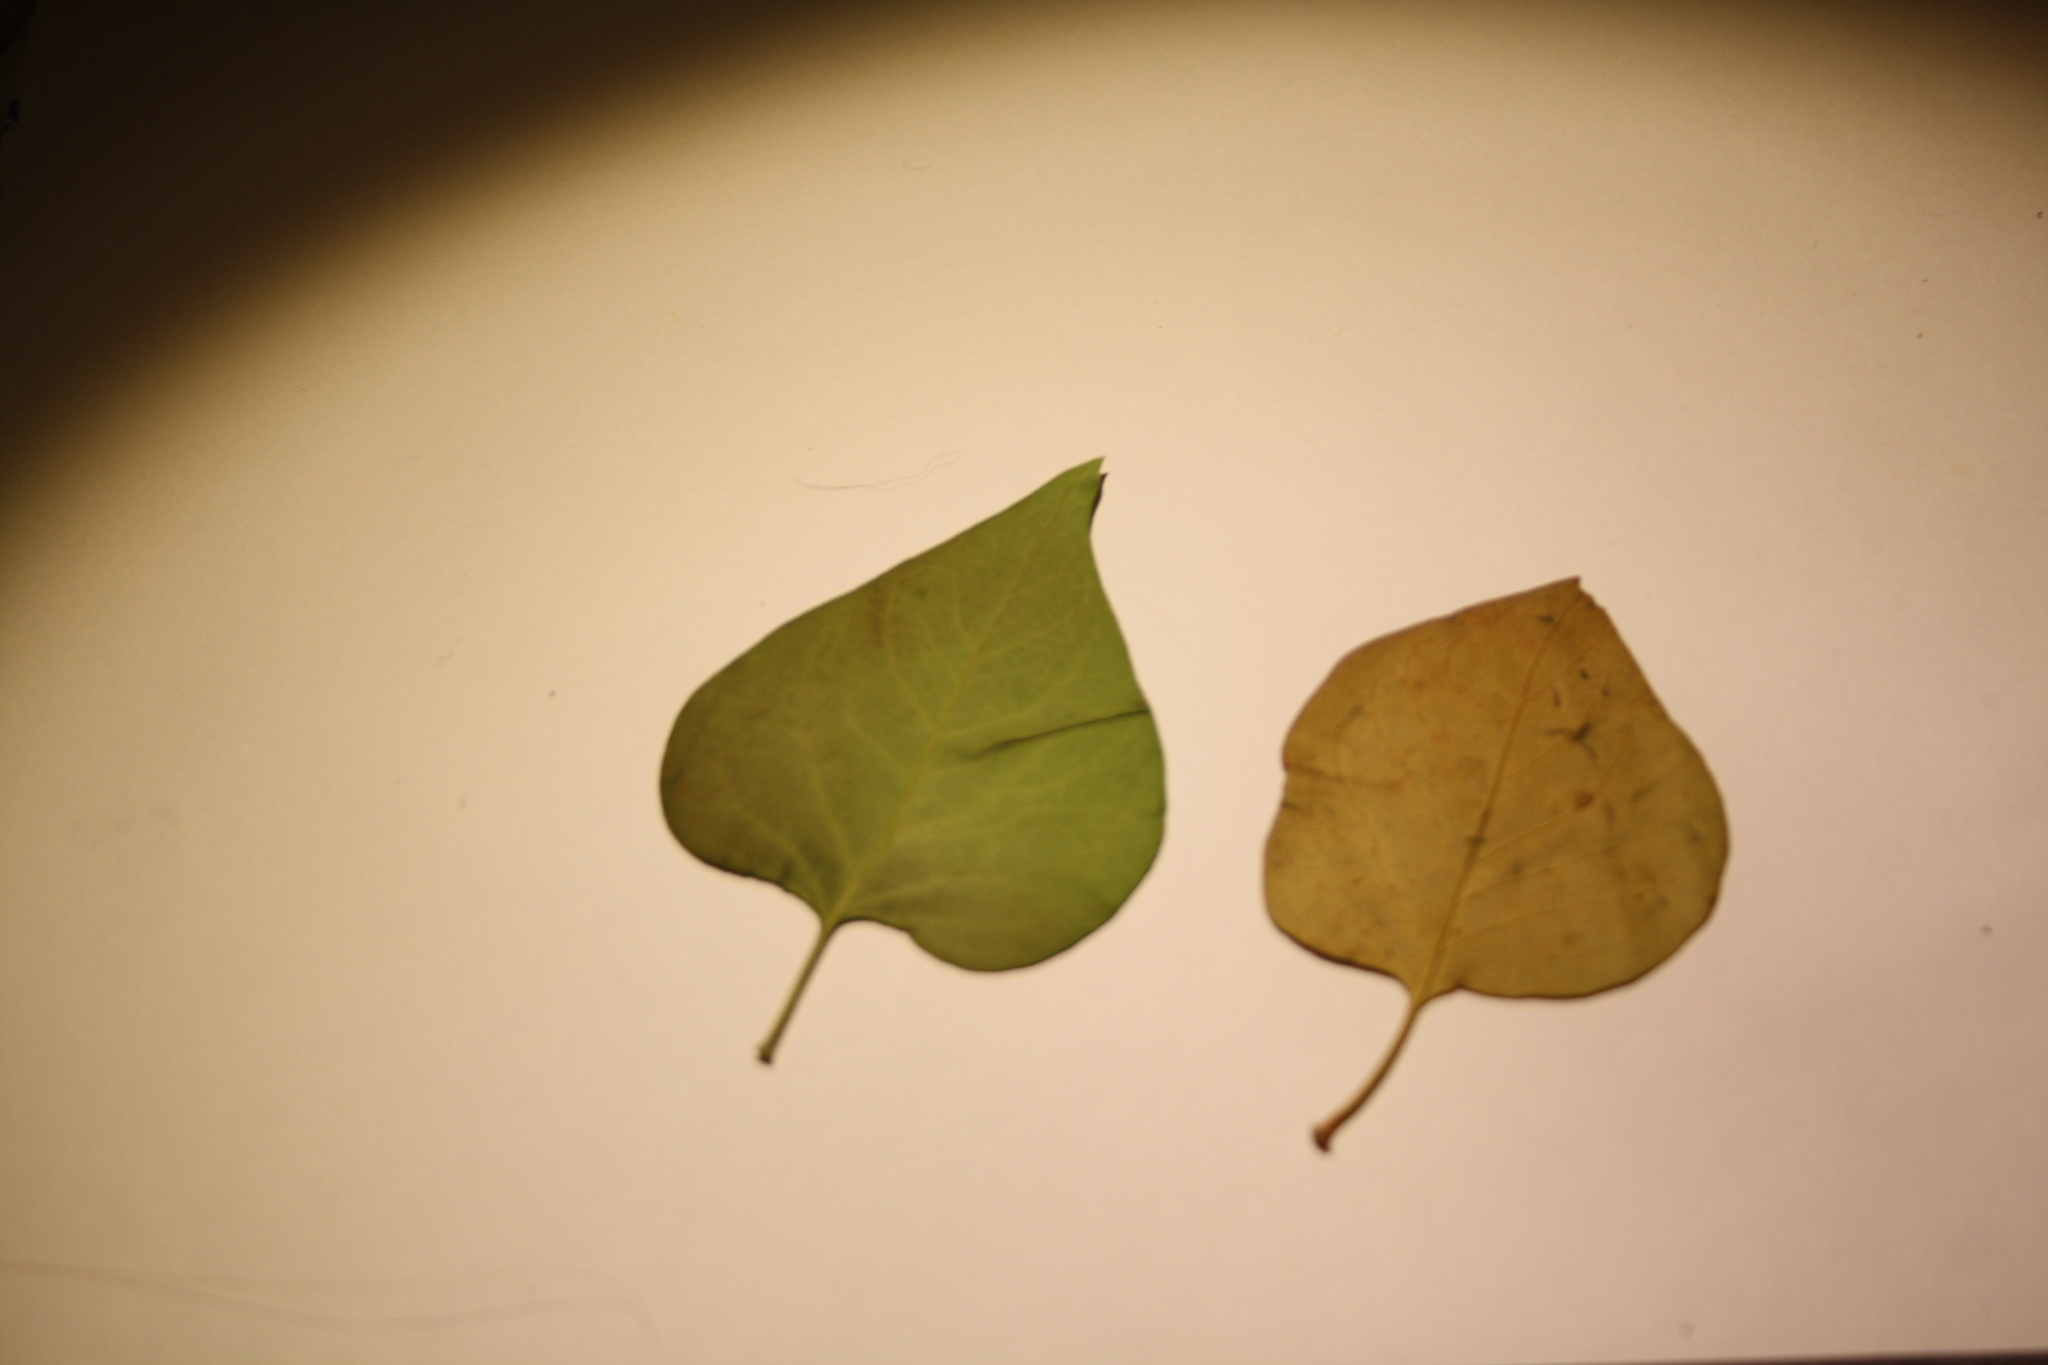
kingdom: Plantae
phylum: Tracheophyta
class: Magnoliopsida
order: Lamiales
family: Oleaceae
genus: Syringa
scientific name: Syringa vulgaris
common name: Common lilac
